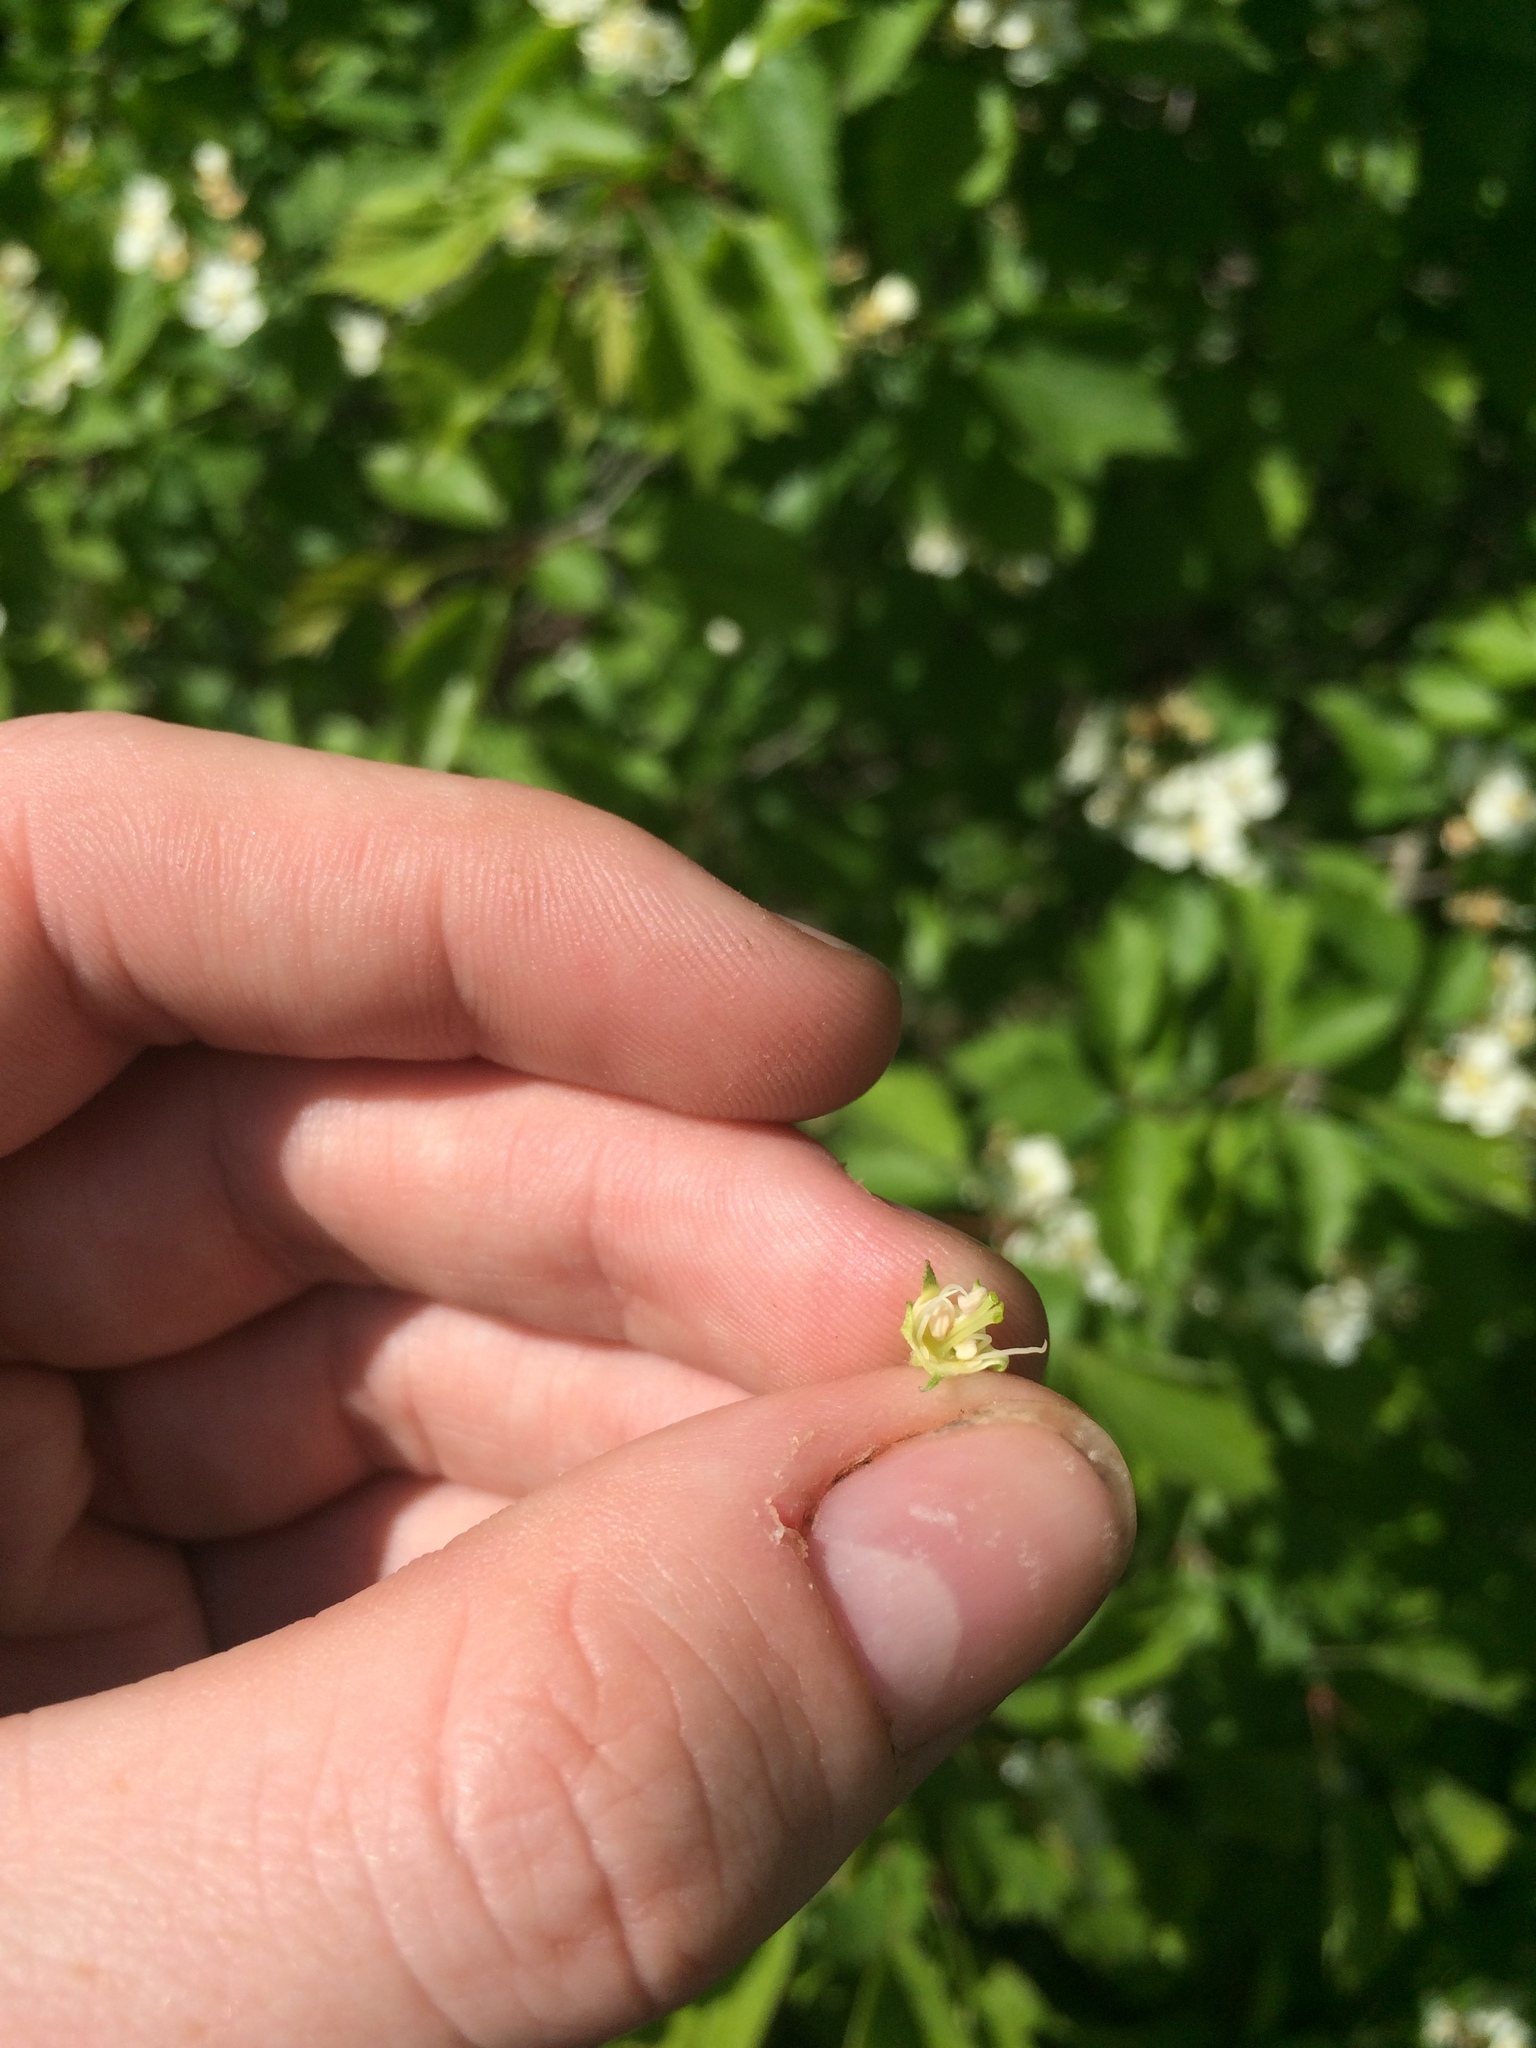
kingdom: Plantae
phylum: Tracheophyta
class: Magnoliopsida
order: Rosales
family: Rosaceae
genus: Crataegus
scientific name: Crataegus chrysocarpa
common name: Fire-berry hawthorn
